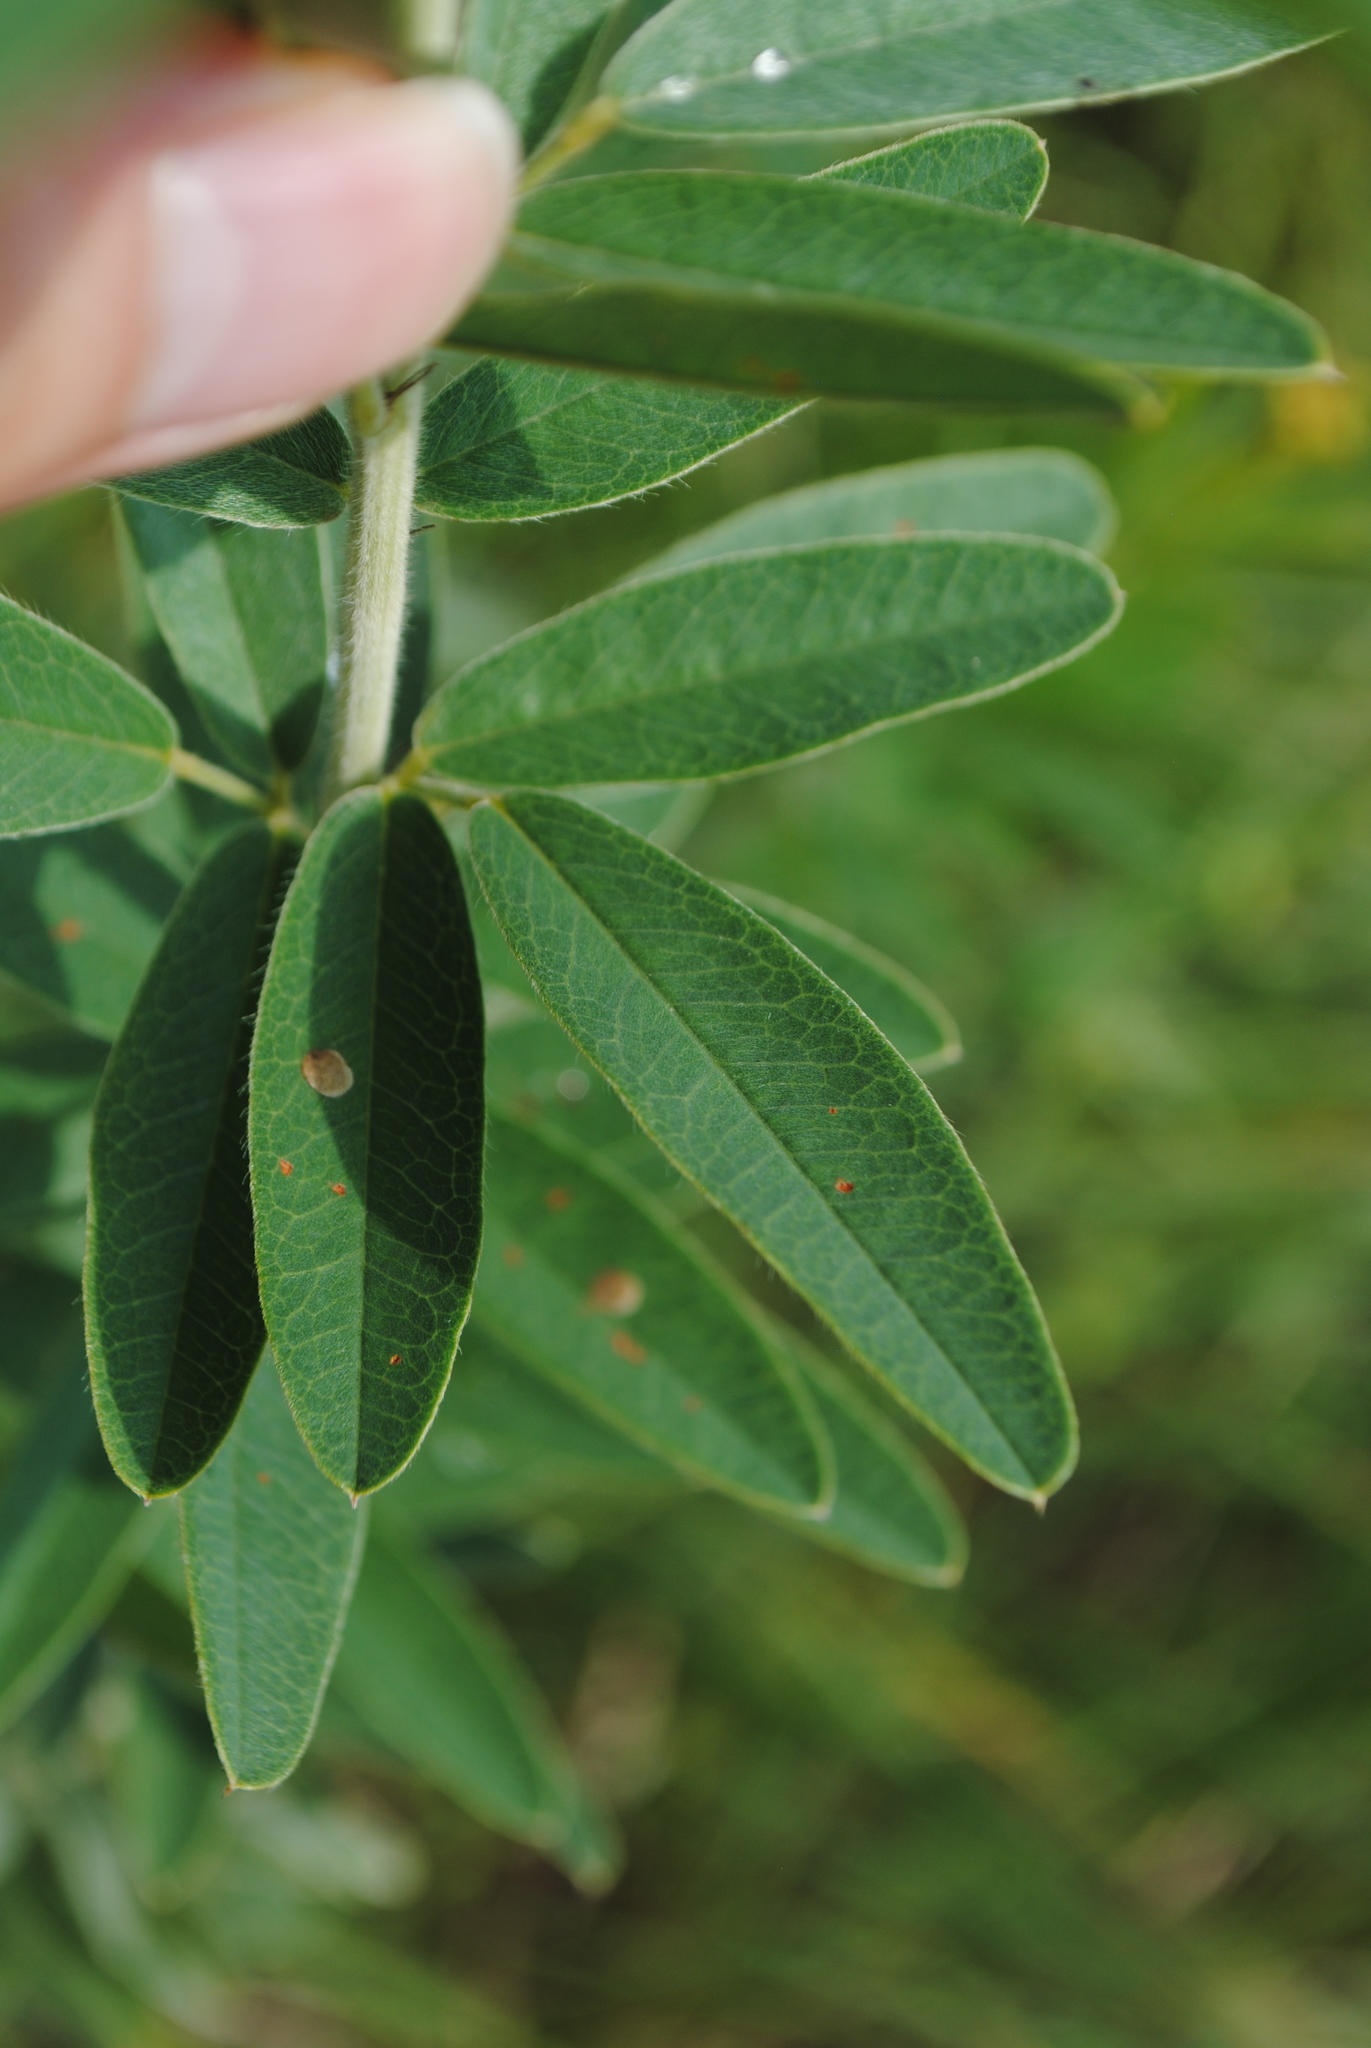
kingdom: Plantae
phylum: Tracheophyta
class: Magnoliopsida
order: Fabales
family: Fabaceae
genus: Lespedeza
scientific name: Lespedeza capitata
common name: Dusty clover
